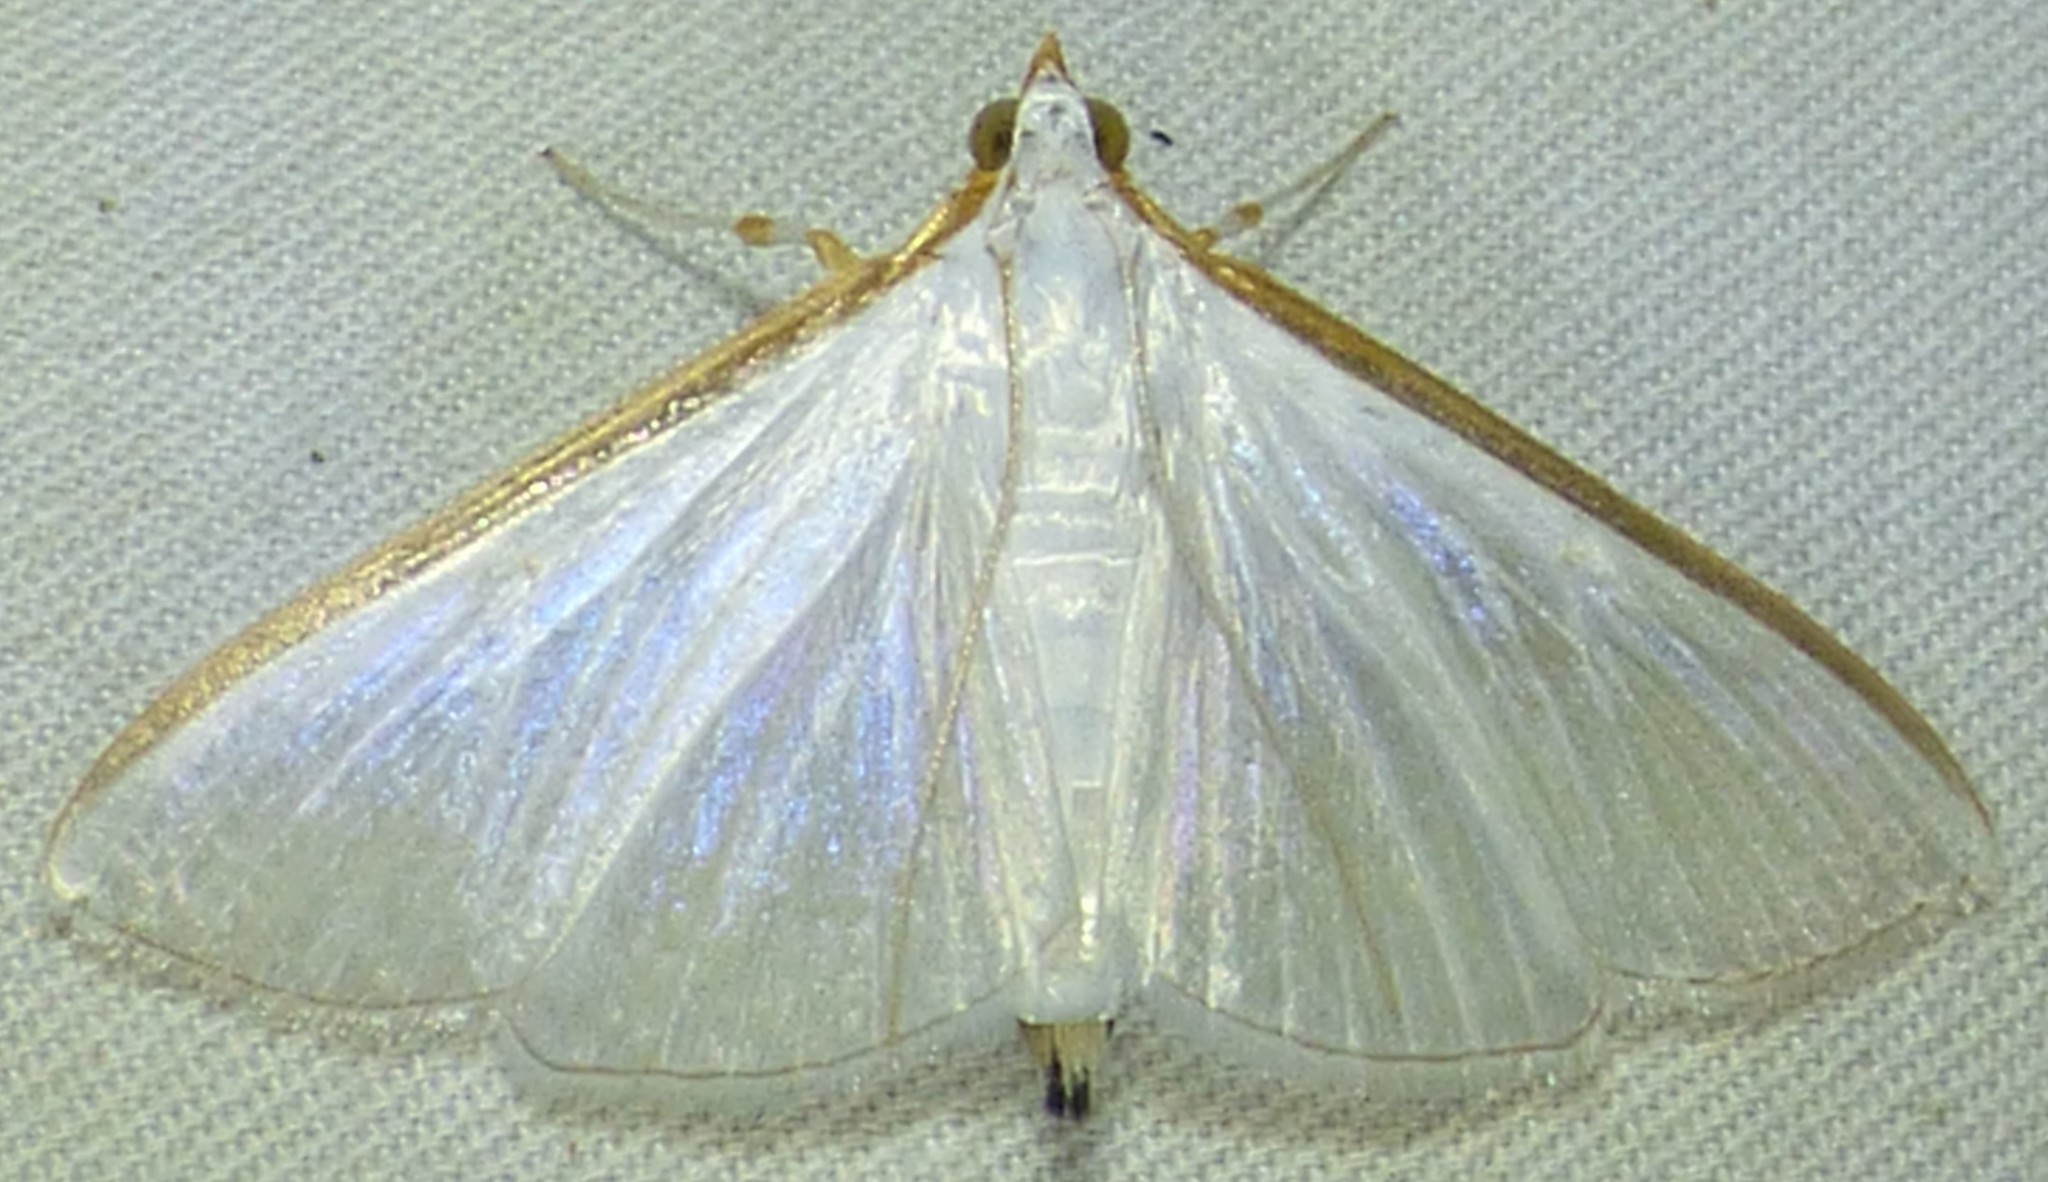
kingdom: Animalia
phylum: Arthropoda
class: Insecta
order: Lepidoptera
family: Crambidae
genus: Diaphania
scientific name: Diaphania costata
